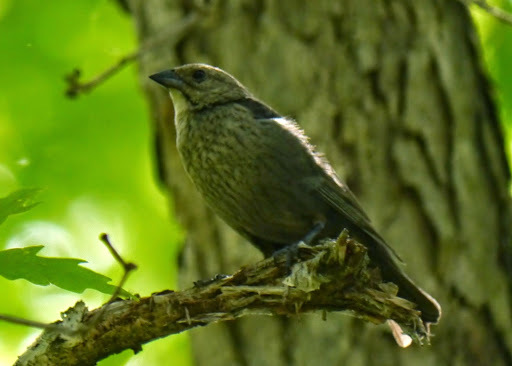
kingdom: Animalia
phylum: Chordata
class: Aves
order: Passeriformes
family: Icteridae
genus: Molothrus
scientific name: Molothrus ater
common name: Brown-headed cowbird
